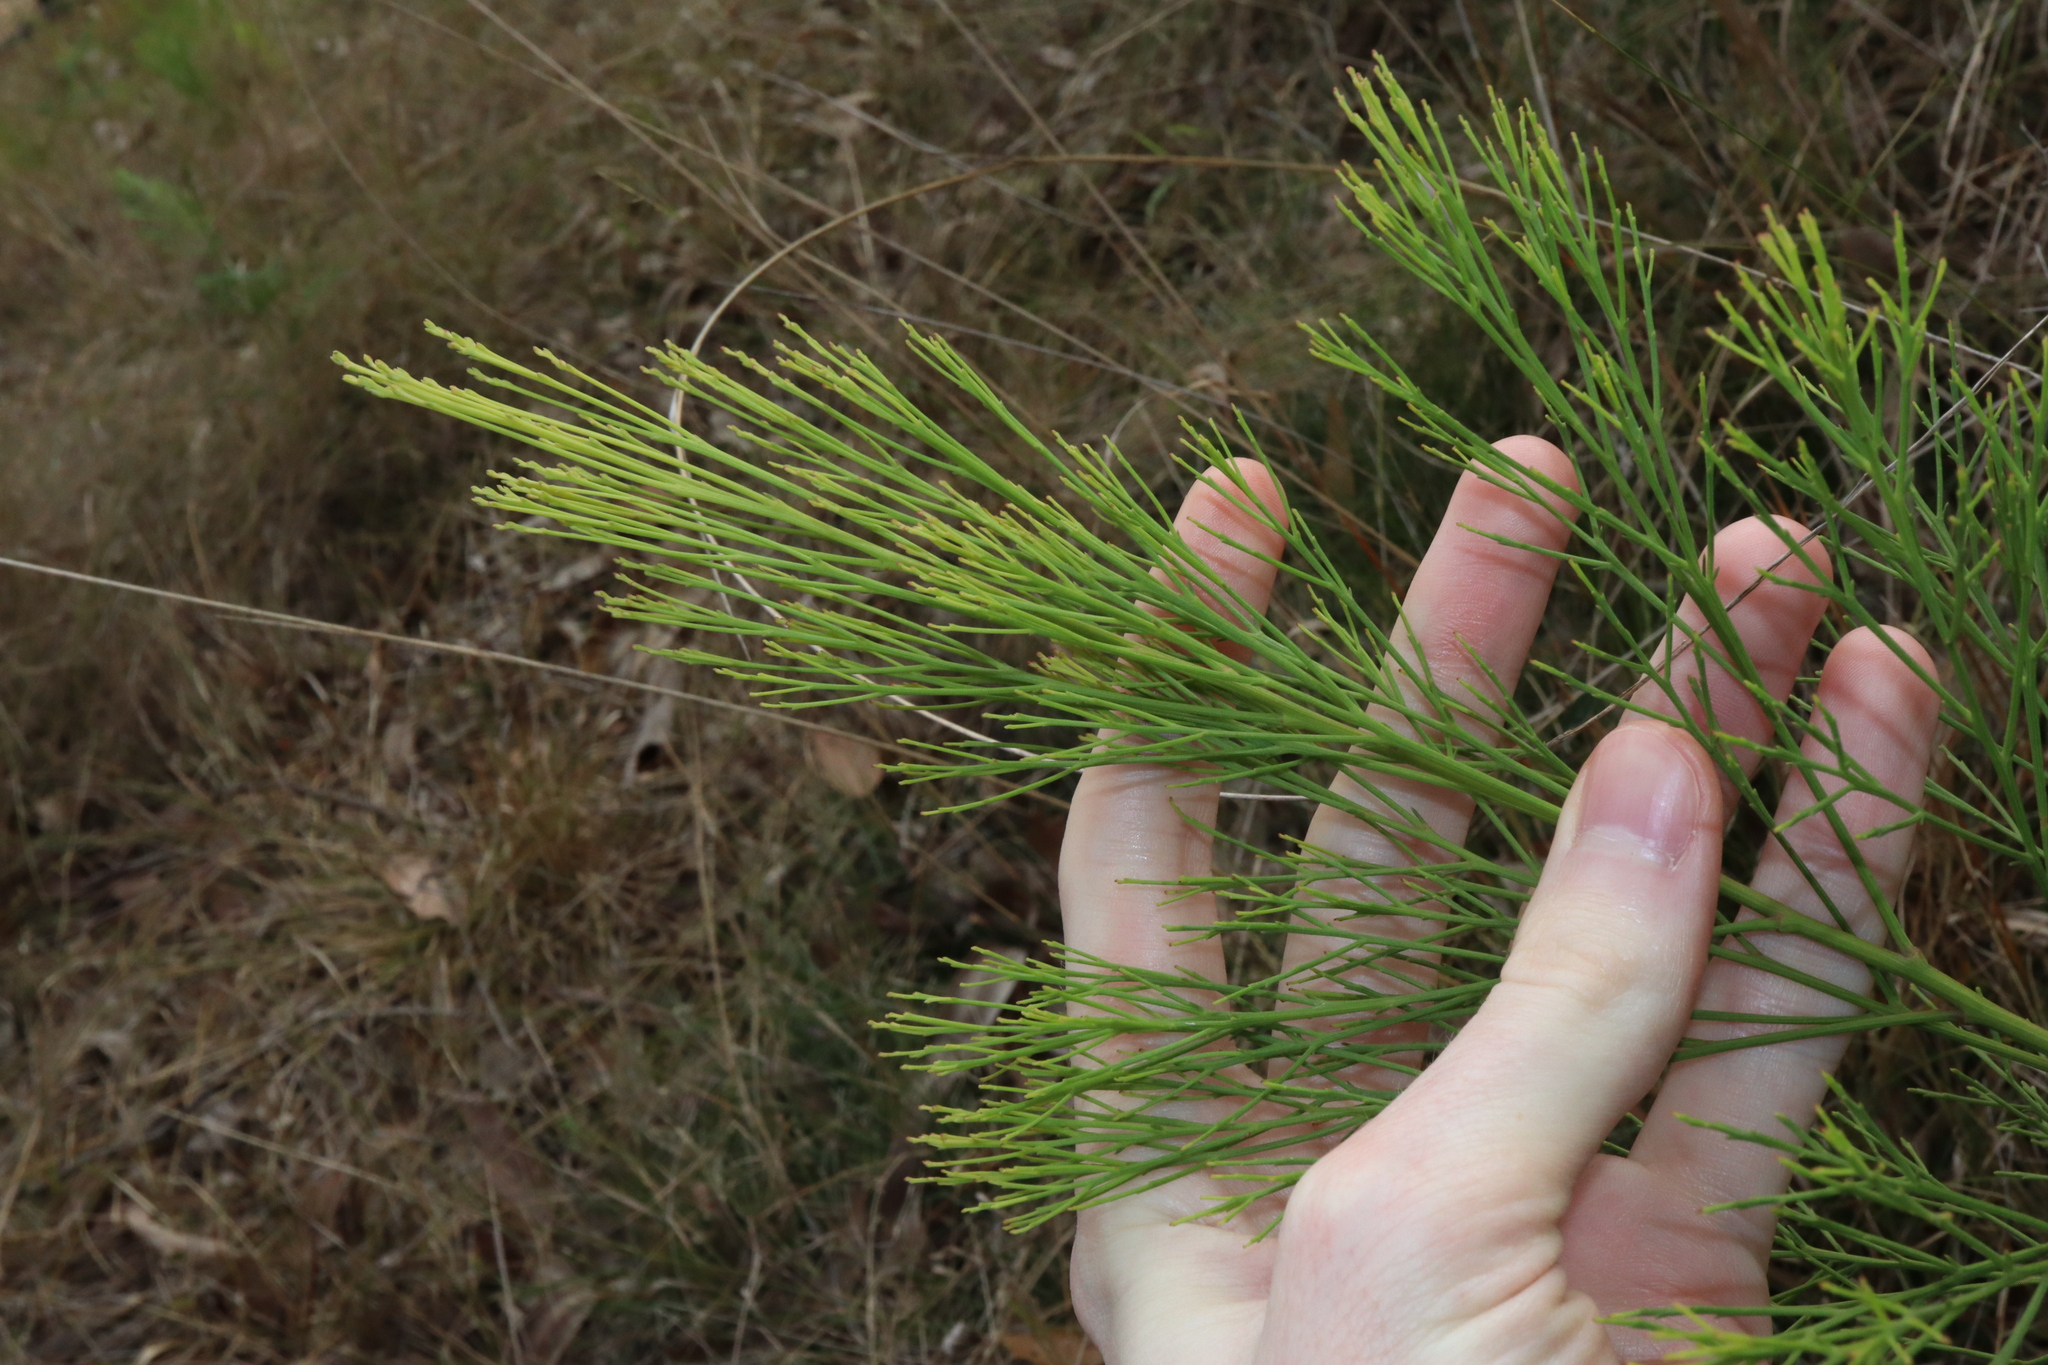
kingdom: Plantae
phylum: Tracheophyta
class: Magnoliopsida
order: Santalales
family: Santalaceae
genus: Exocarpos
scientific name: Exocarpos cupressiformis
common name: Cherry ballart
